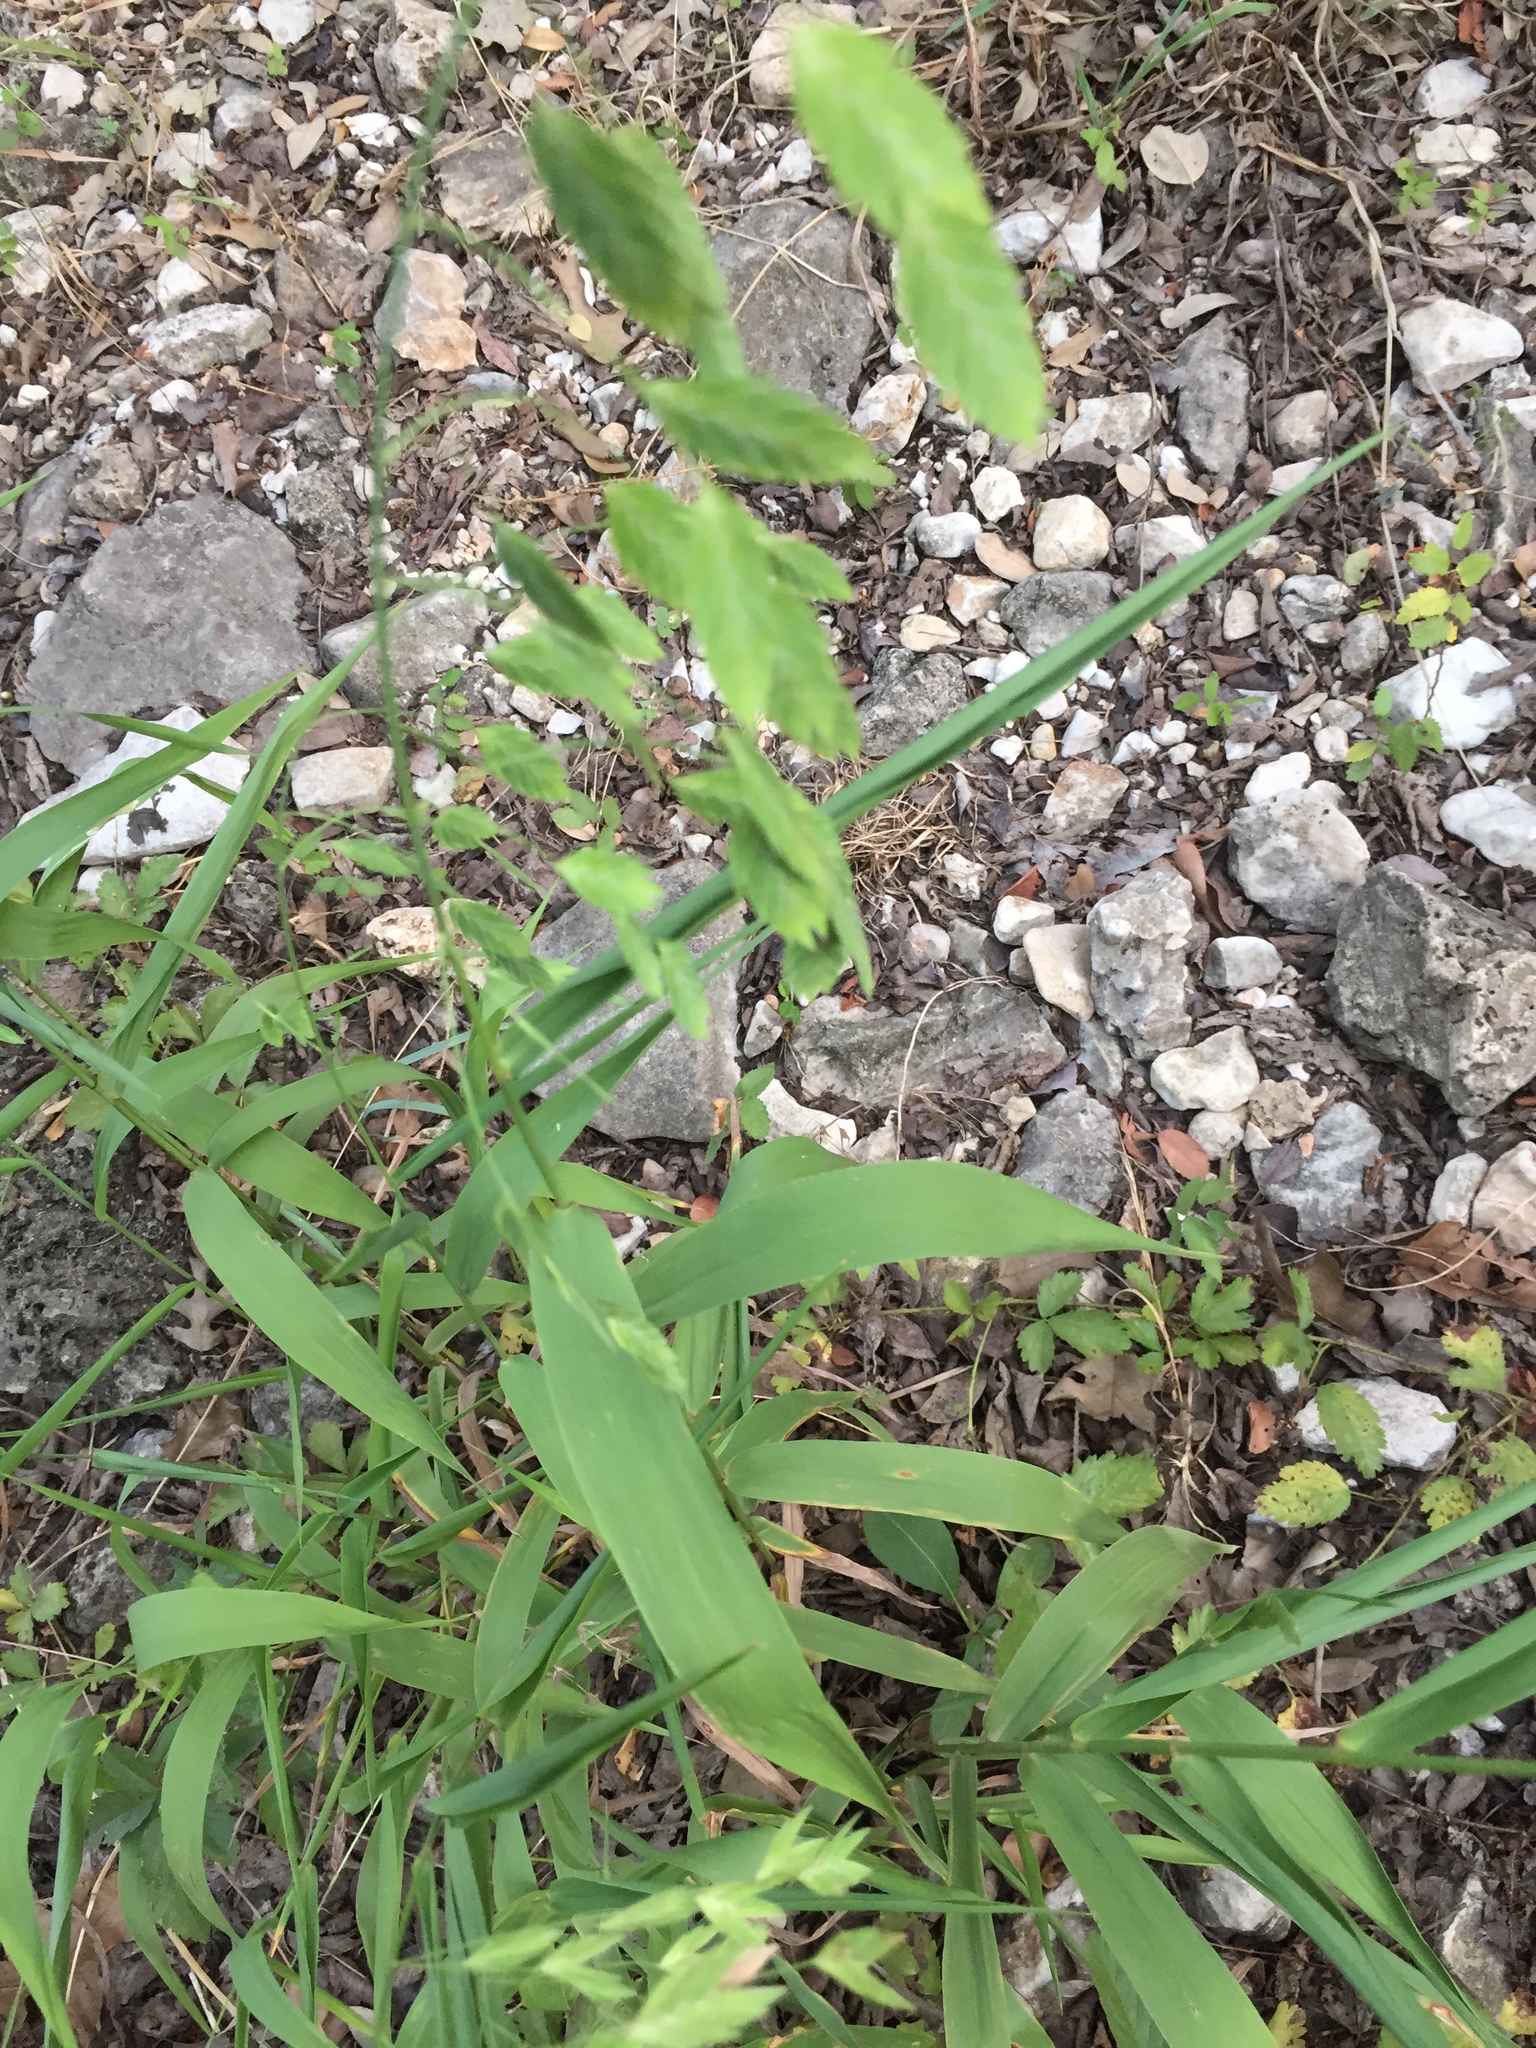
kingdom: Plantae
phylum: Tracheophyta
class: Liliopsida
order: Poales
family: Poaceae
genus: Chasmanthium
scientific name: Chasmanthium latifolium
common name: Broad-leaved chasmanthium
